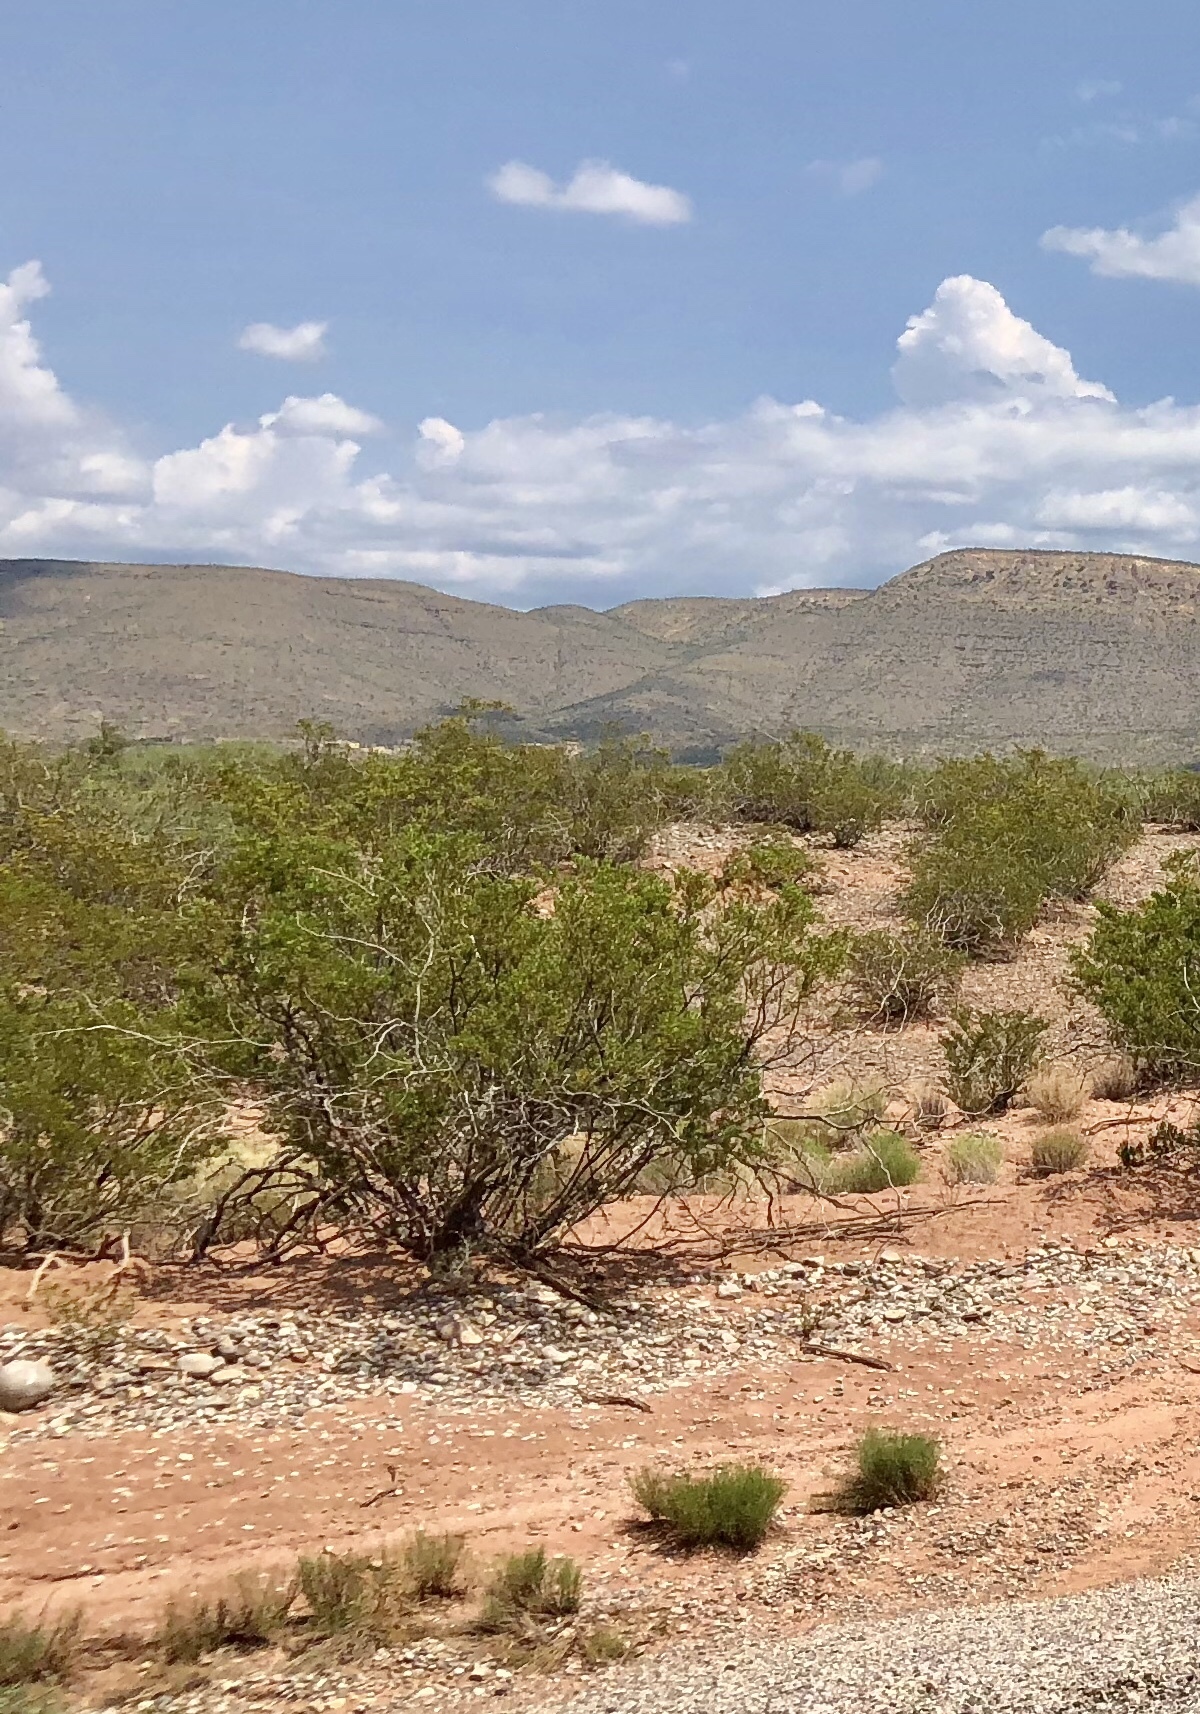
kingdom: Plantae
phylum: Tracheophyta
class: Magnoliopsida
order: Zygophyllales
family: Zygophyllaceae
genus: Larrea
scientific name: Larrea tridentata
